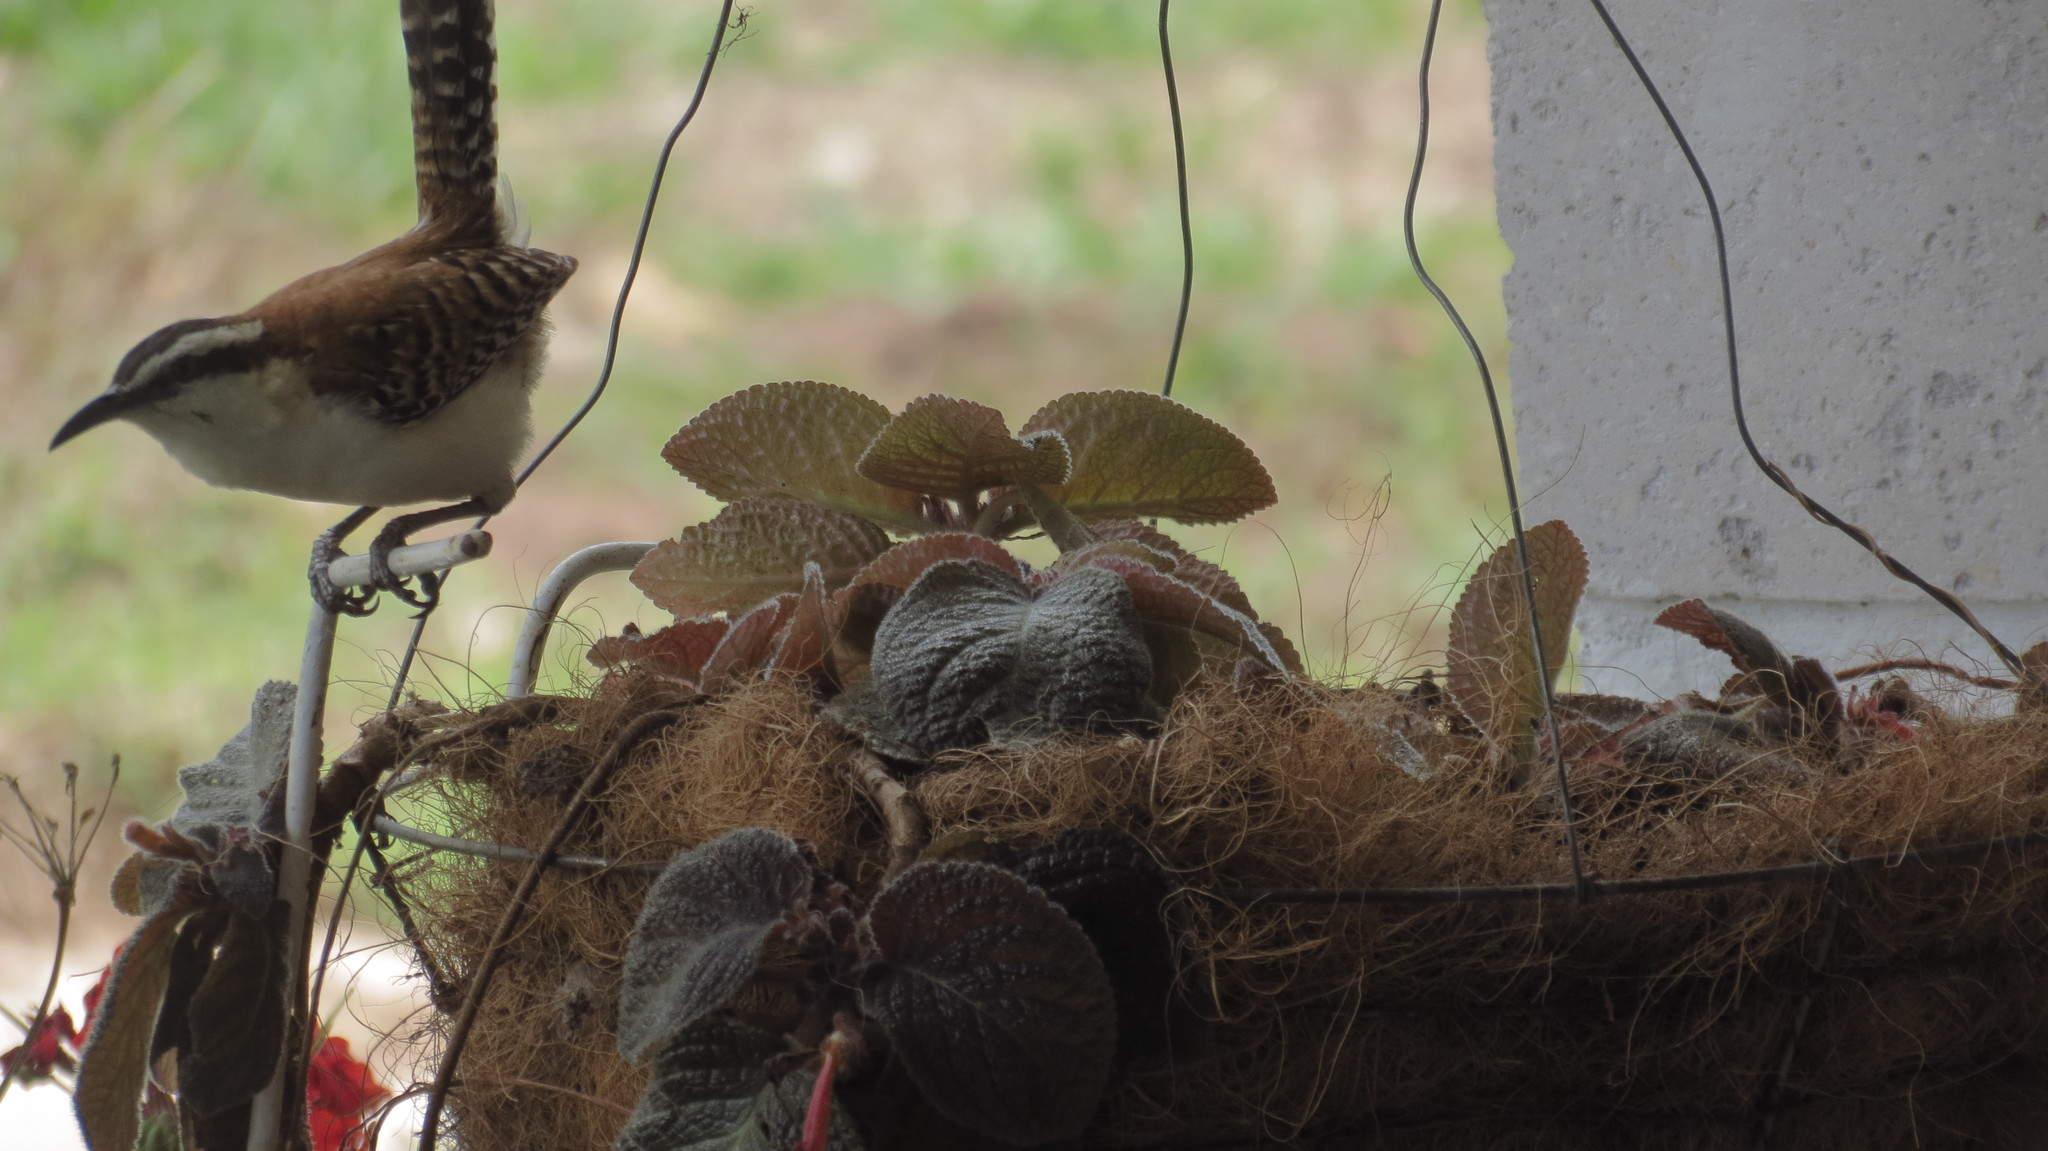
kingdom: Animalia
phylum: Chordata
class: Aves
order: Passeriformes
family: Troglodytidae
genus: Campylorhynchus
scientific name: Campylorhynchus rufinucha
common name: Rufous-naped wren
